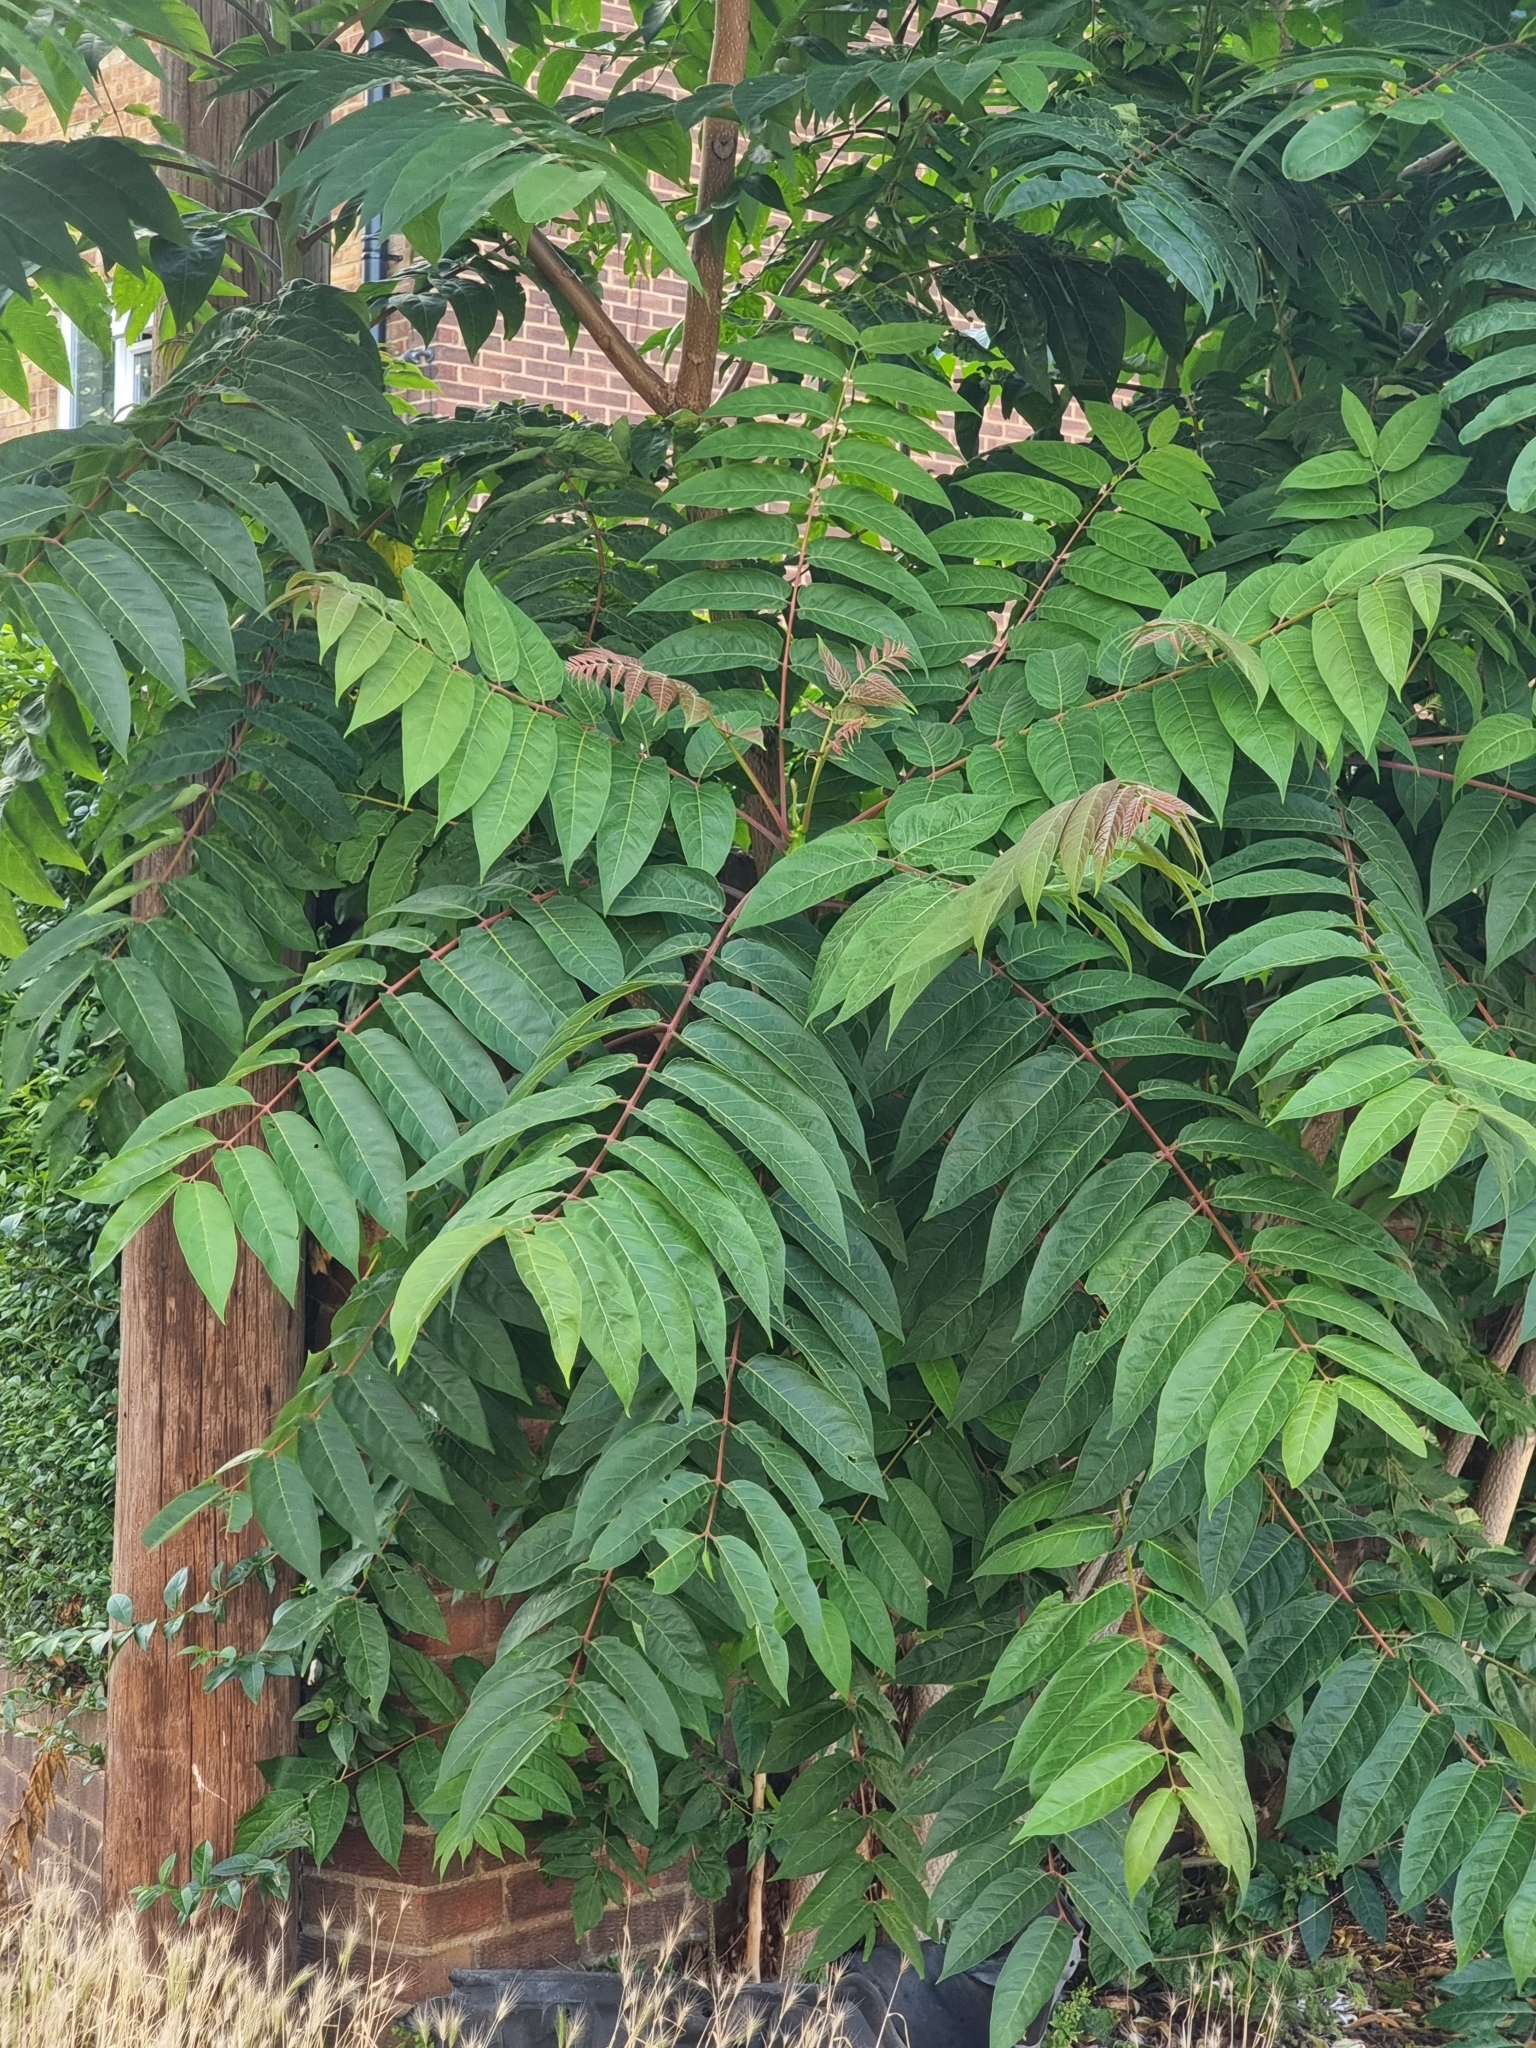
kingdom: Plantae
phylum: Tracheophyta
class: Magnoliopsida
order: Sapindales
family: Simaroubaceae
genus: Ailanthus
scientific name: Ailanthus altissima
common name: Tree-of-heaven
